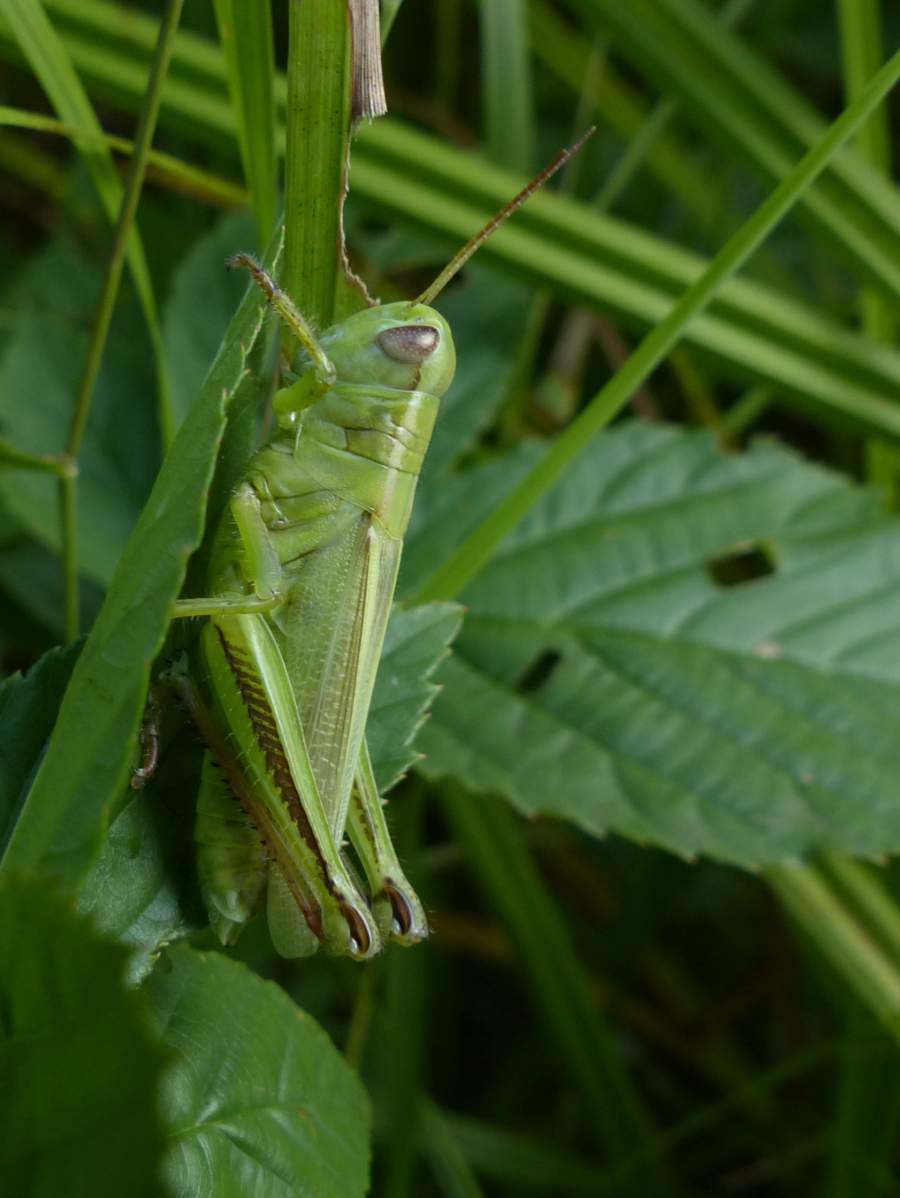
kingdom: Animalia
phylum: Arthropoda
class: Insecta
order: Orthoptera
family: Acrididae
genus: Melanoplus
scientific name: Melanoplus bivittatus
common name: Two-striped grasshopper
